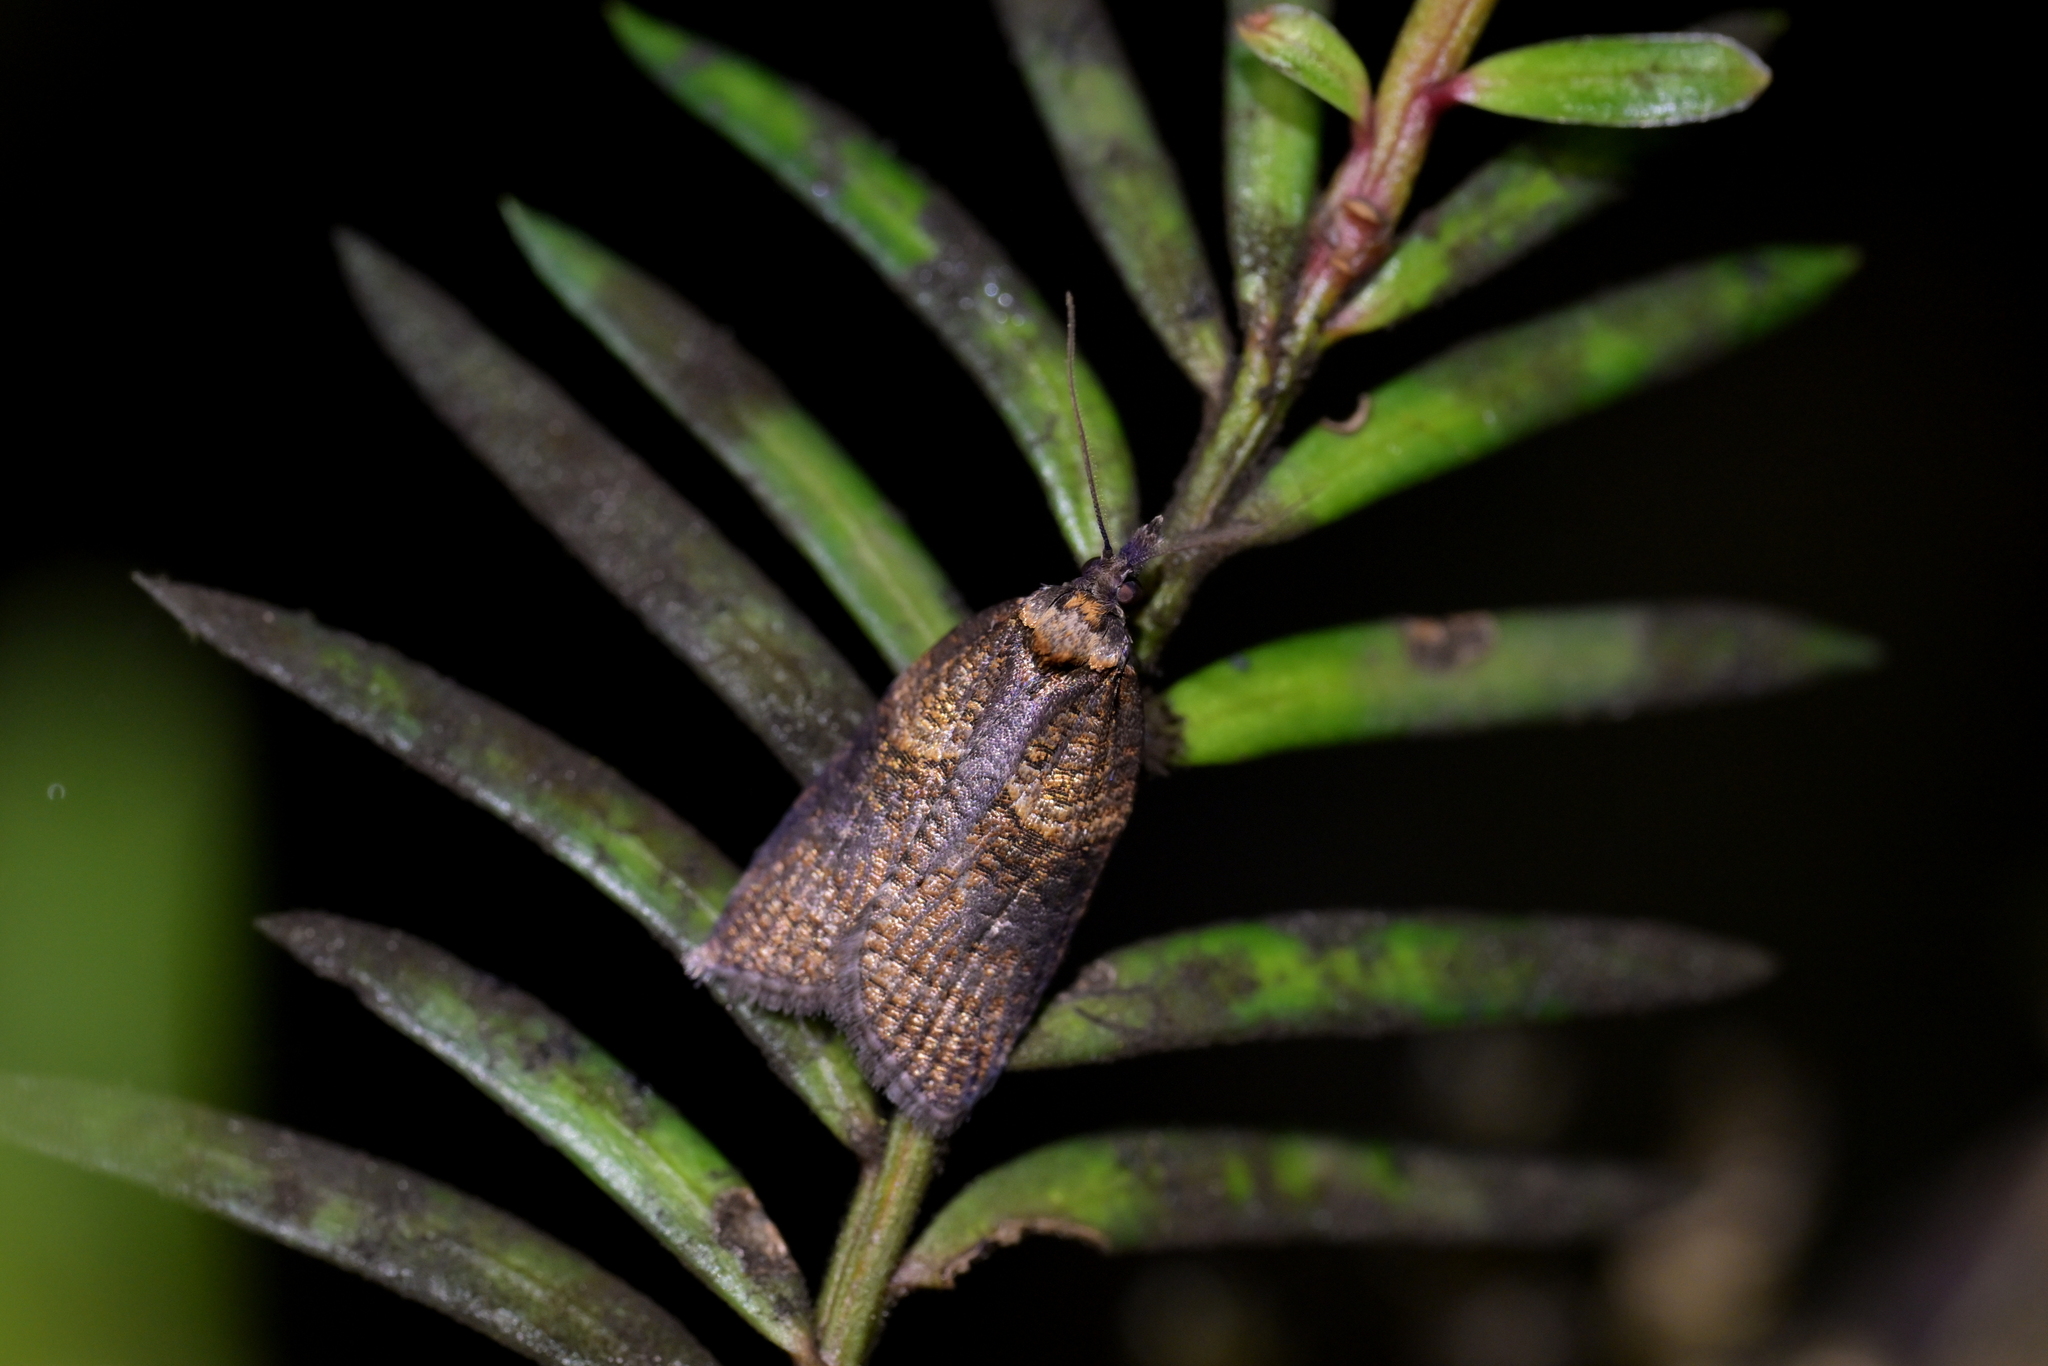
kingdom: Animalia
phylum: Arthropoda
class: Insecta
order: Lepidoptera
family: Tortricidae
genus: Maoritenes
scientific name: Maoritenes cyclobathra
